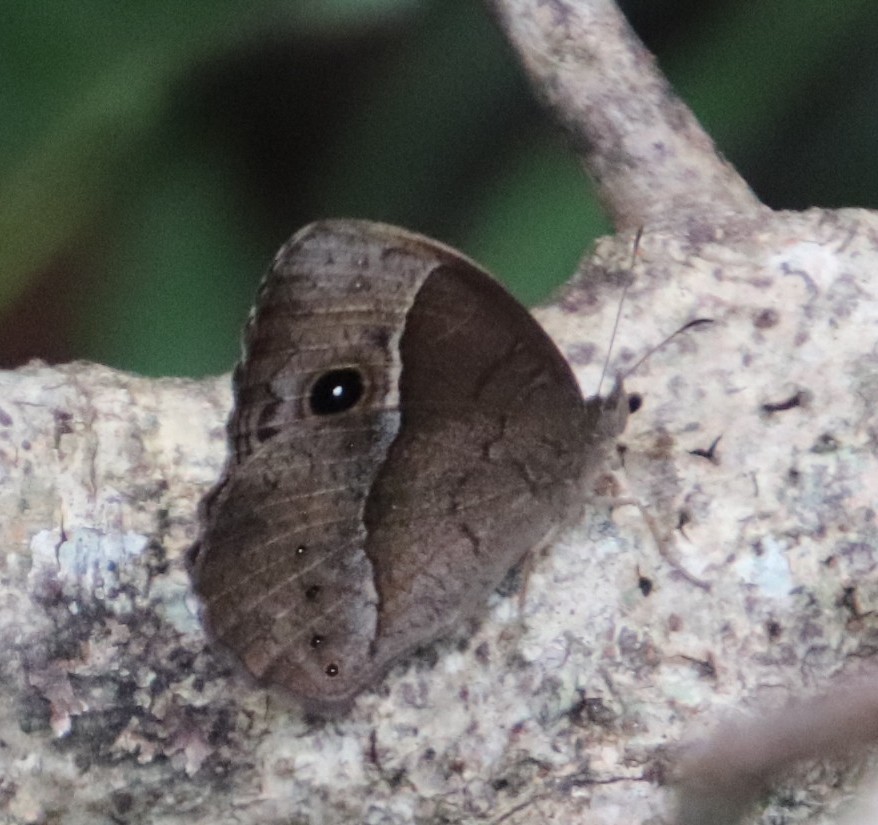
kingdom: Animalia
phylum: Arthropoda
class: Insecta
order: Lepidoptera
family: Nymphalidae
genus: Mycalesis
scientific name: Mycalesis rhacotis
